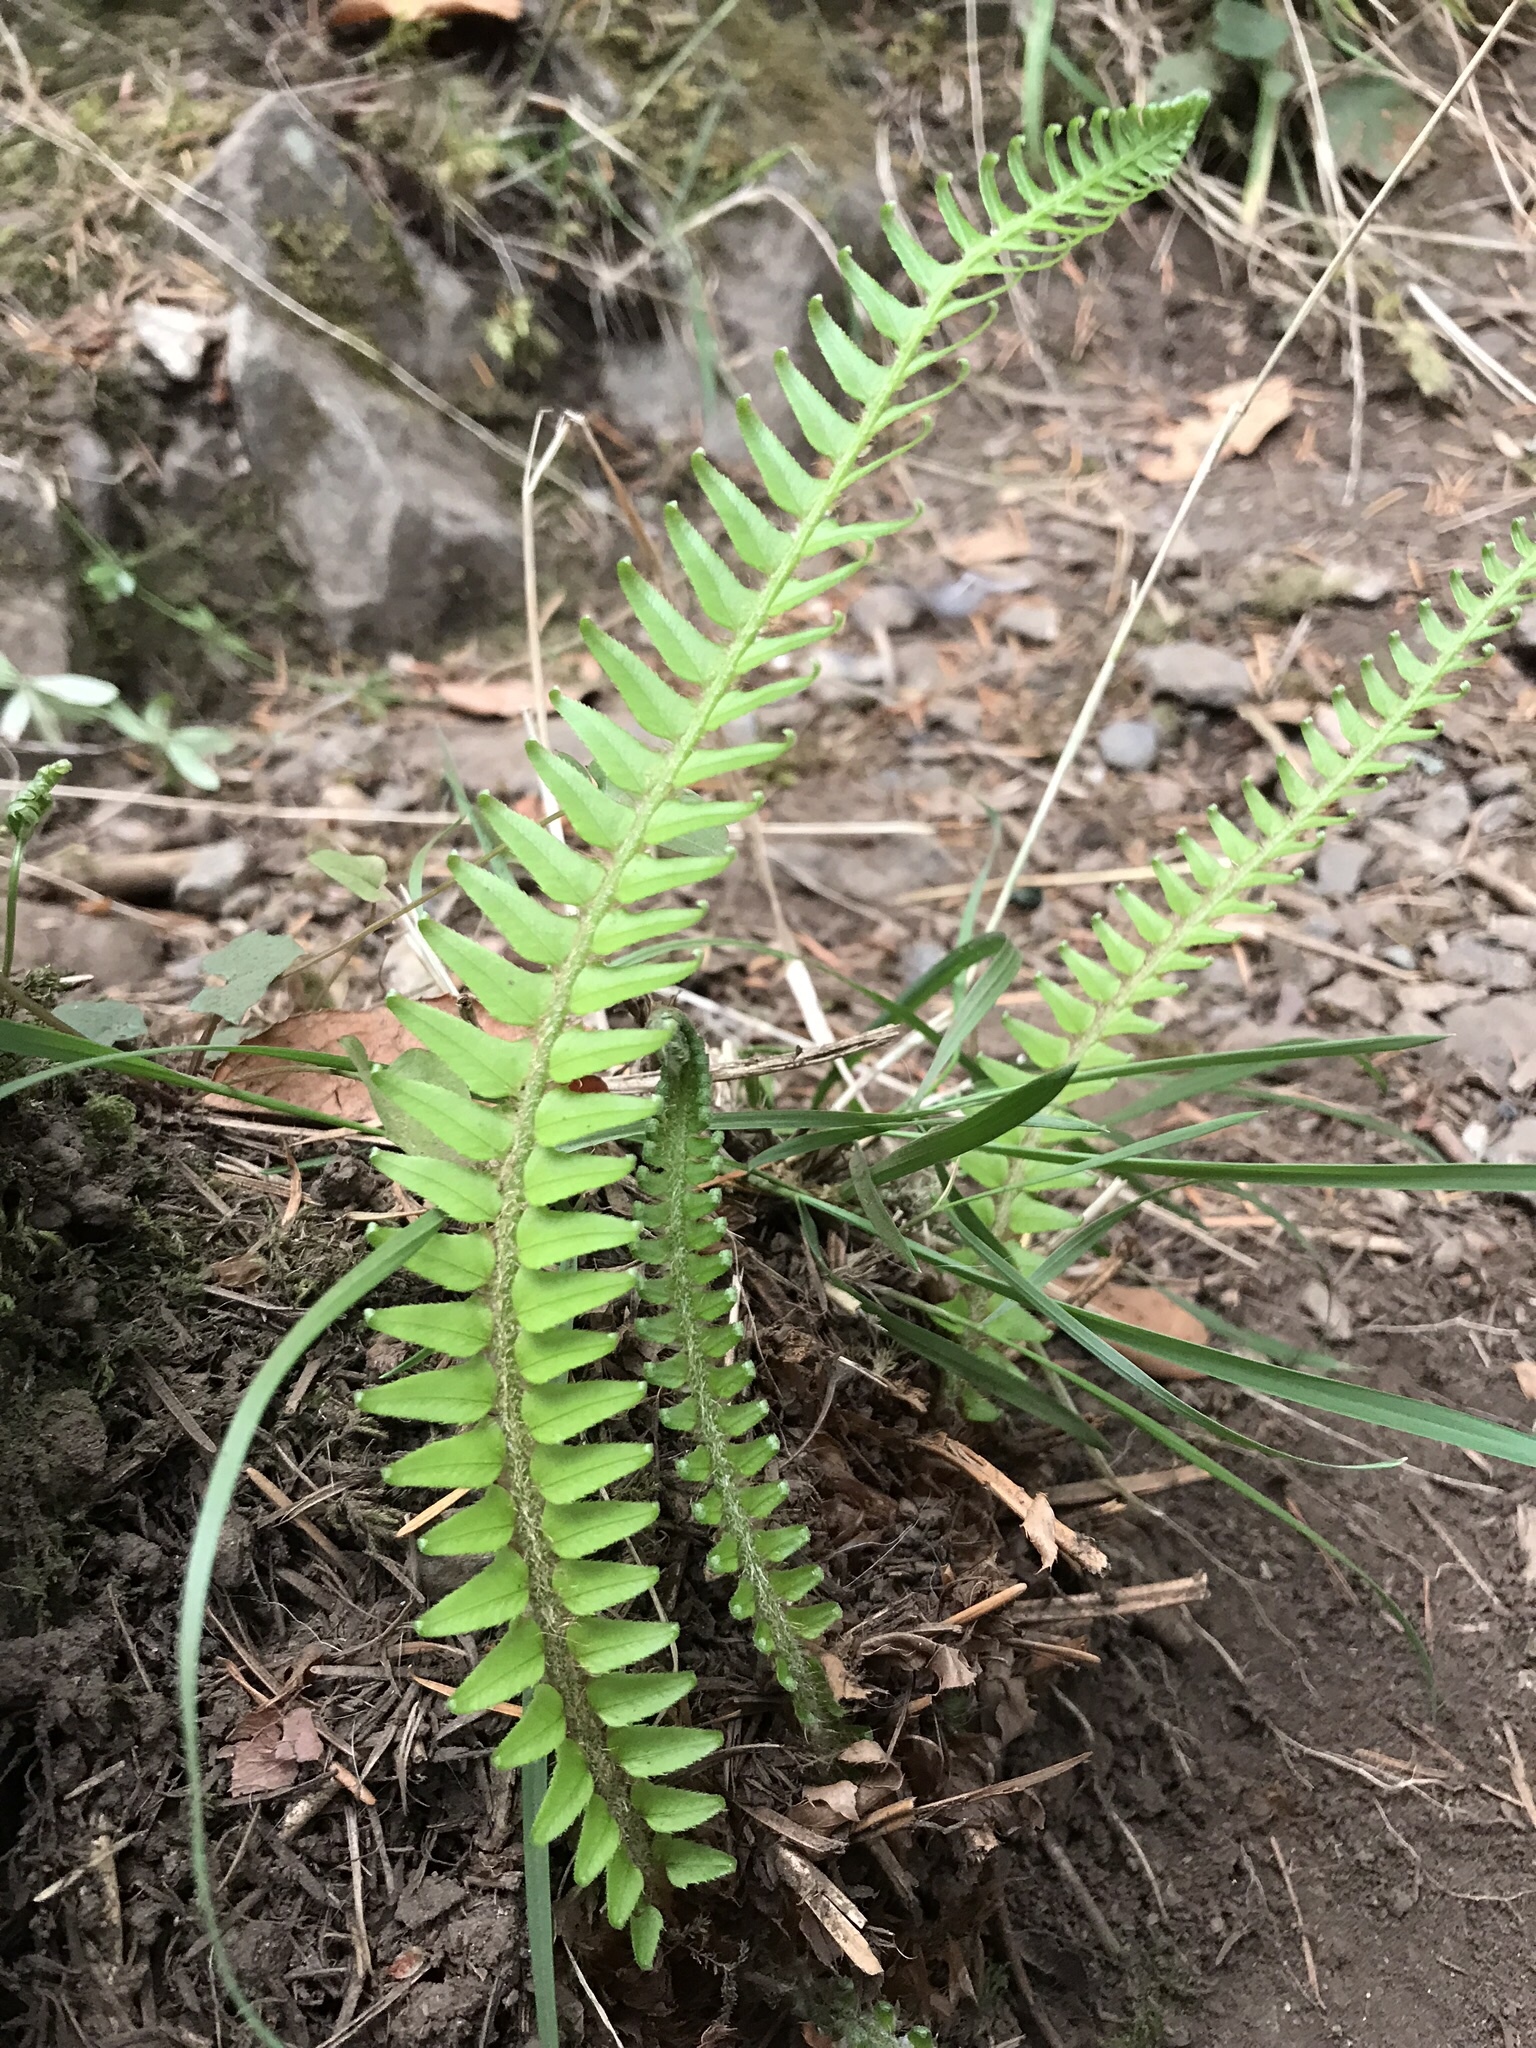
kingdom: Plantae
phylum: Tracheophyta
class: Polypodiopsida
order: Polypodiales
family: Dryopteridaceae
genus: Polystichum
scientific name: Polystichum munitum
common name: Western sword-fern
